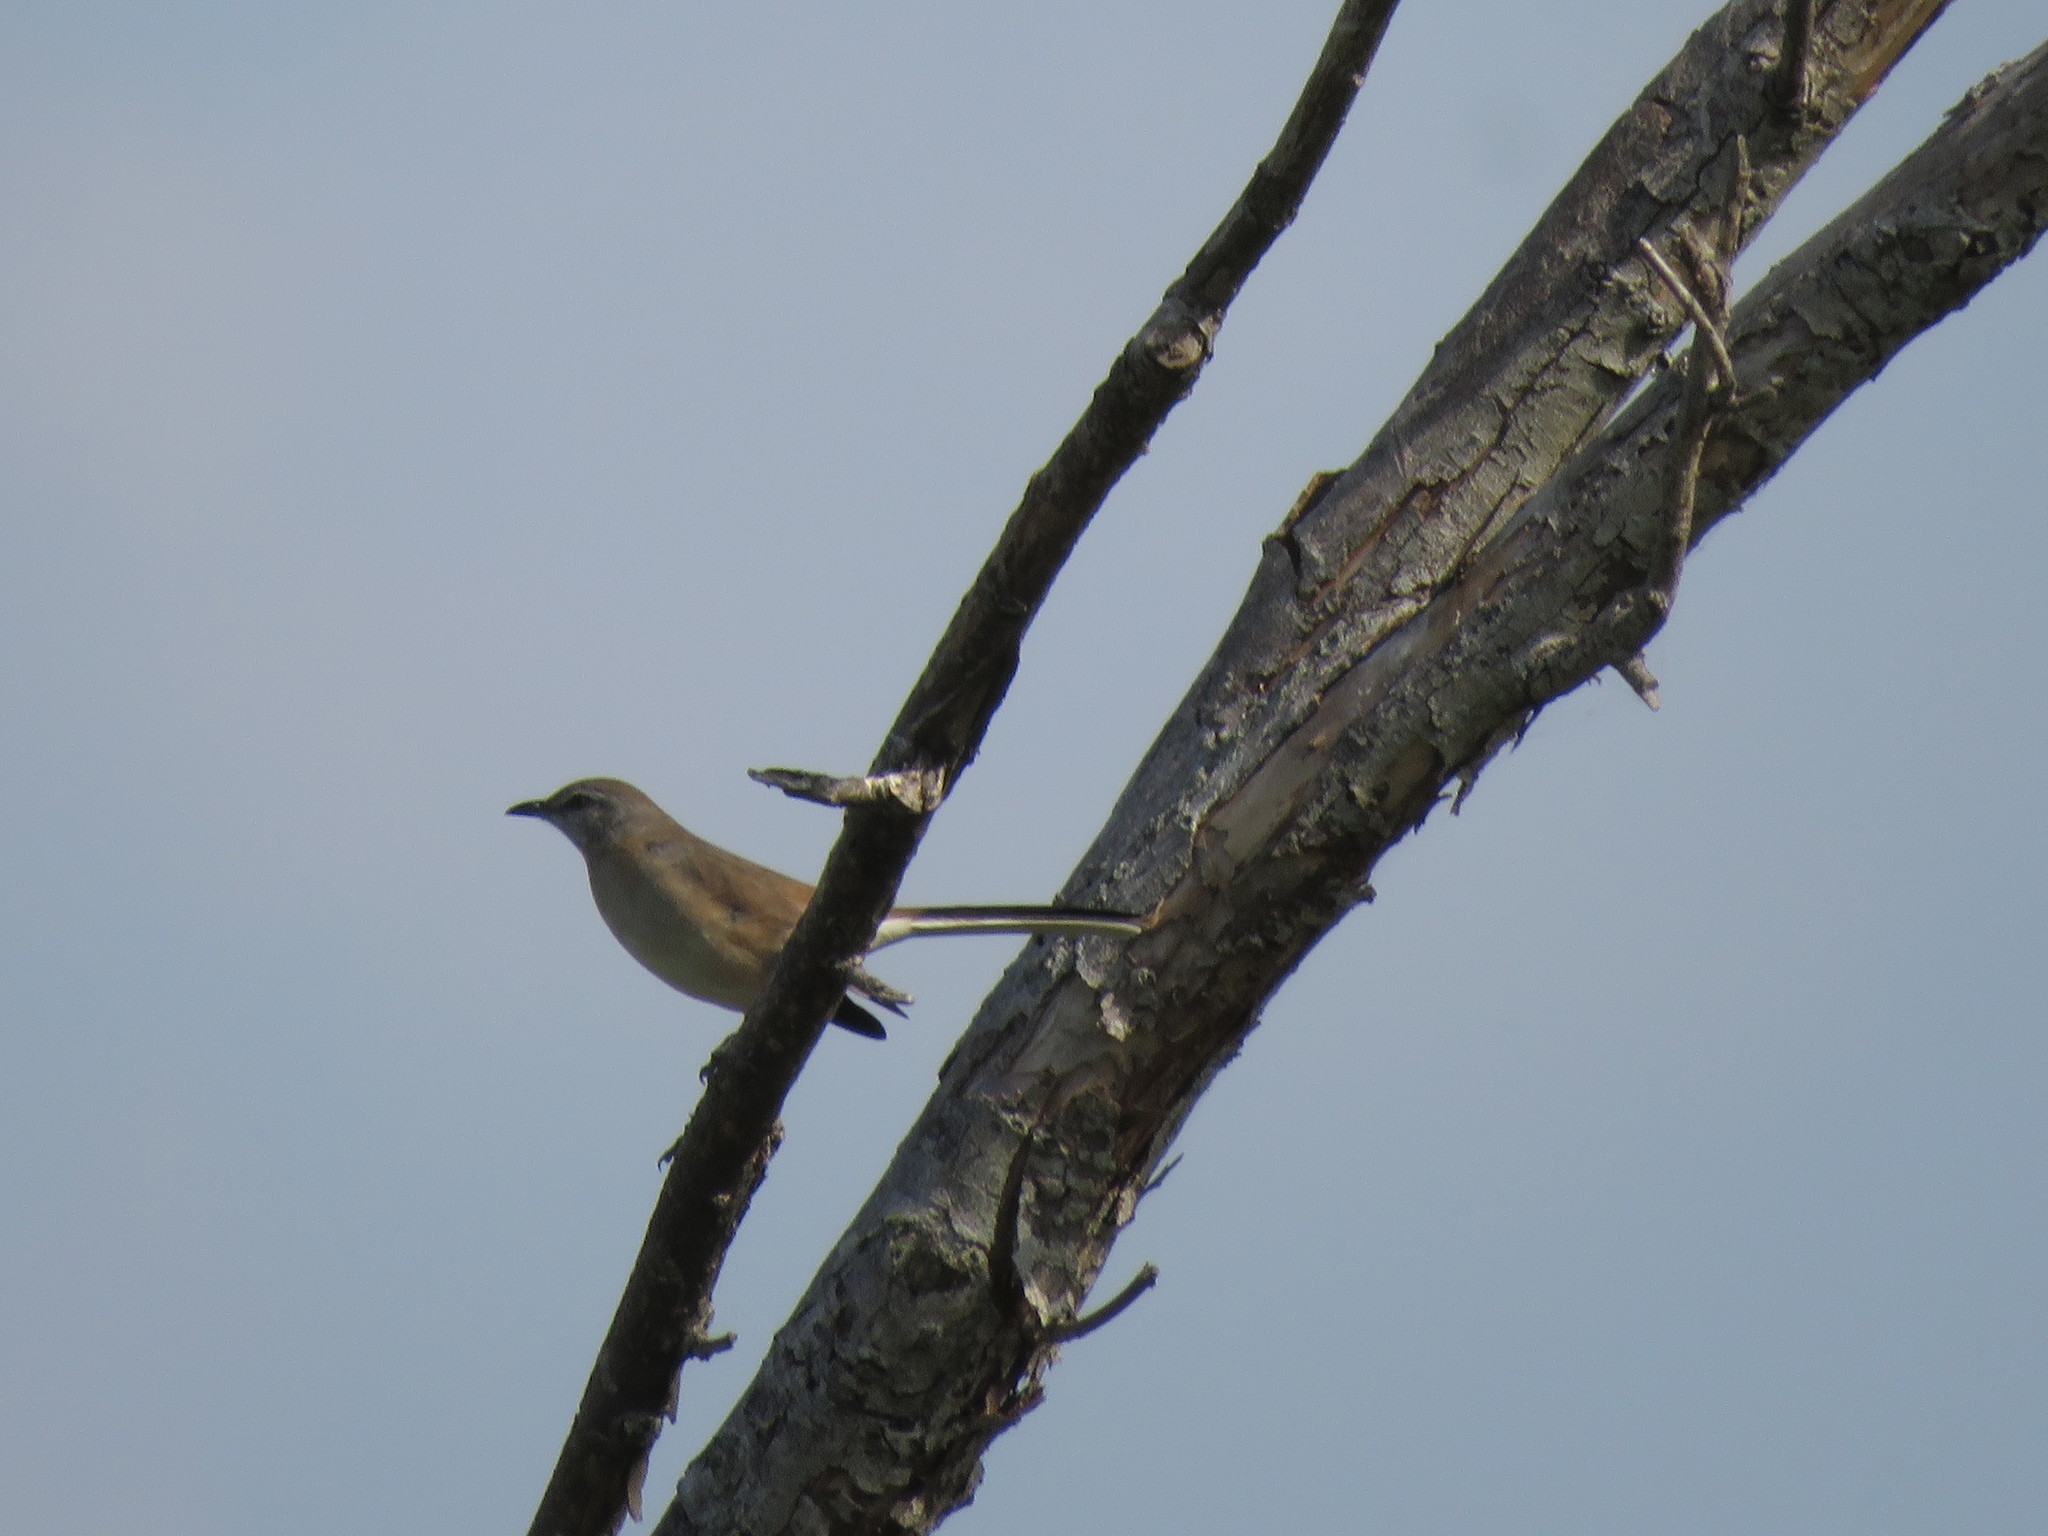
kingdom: Animalia
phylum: Chordata
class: Aves
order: Passeriformes
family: Mimidae
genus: Mimus
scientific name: Mimus triurus
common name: White-banded mockingbird
